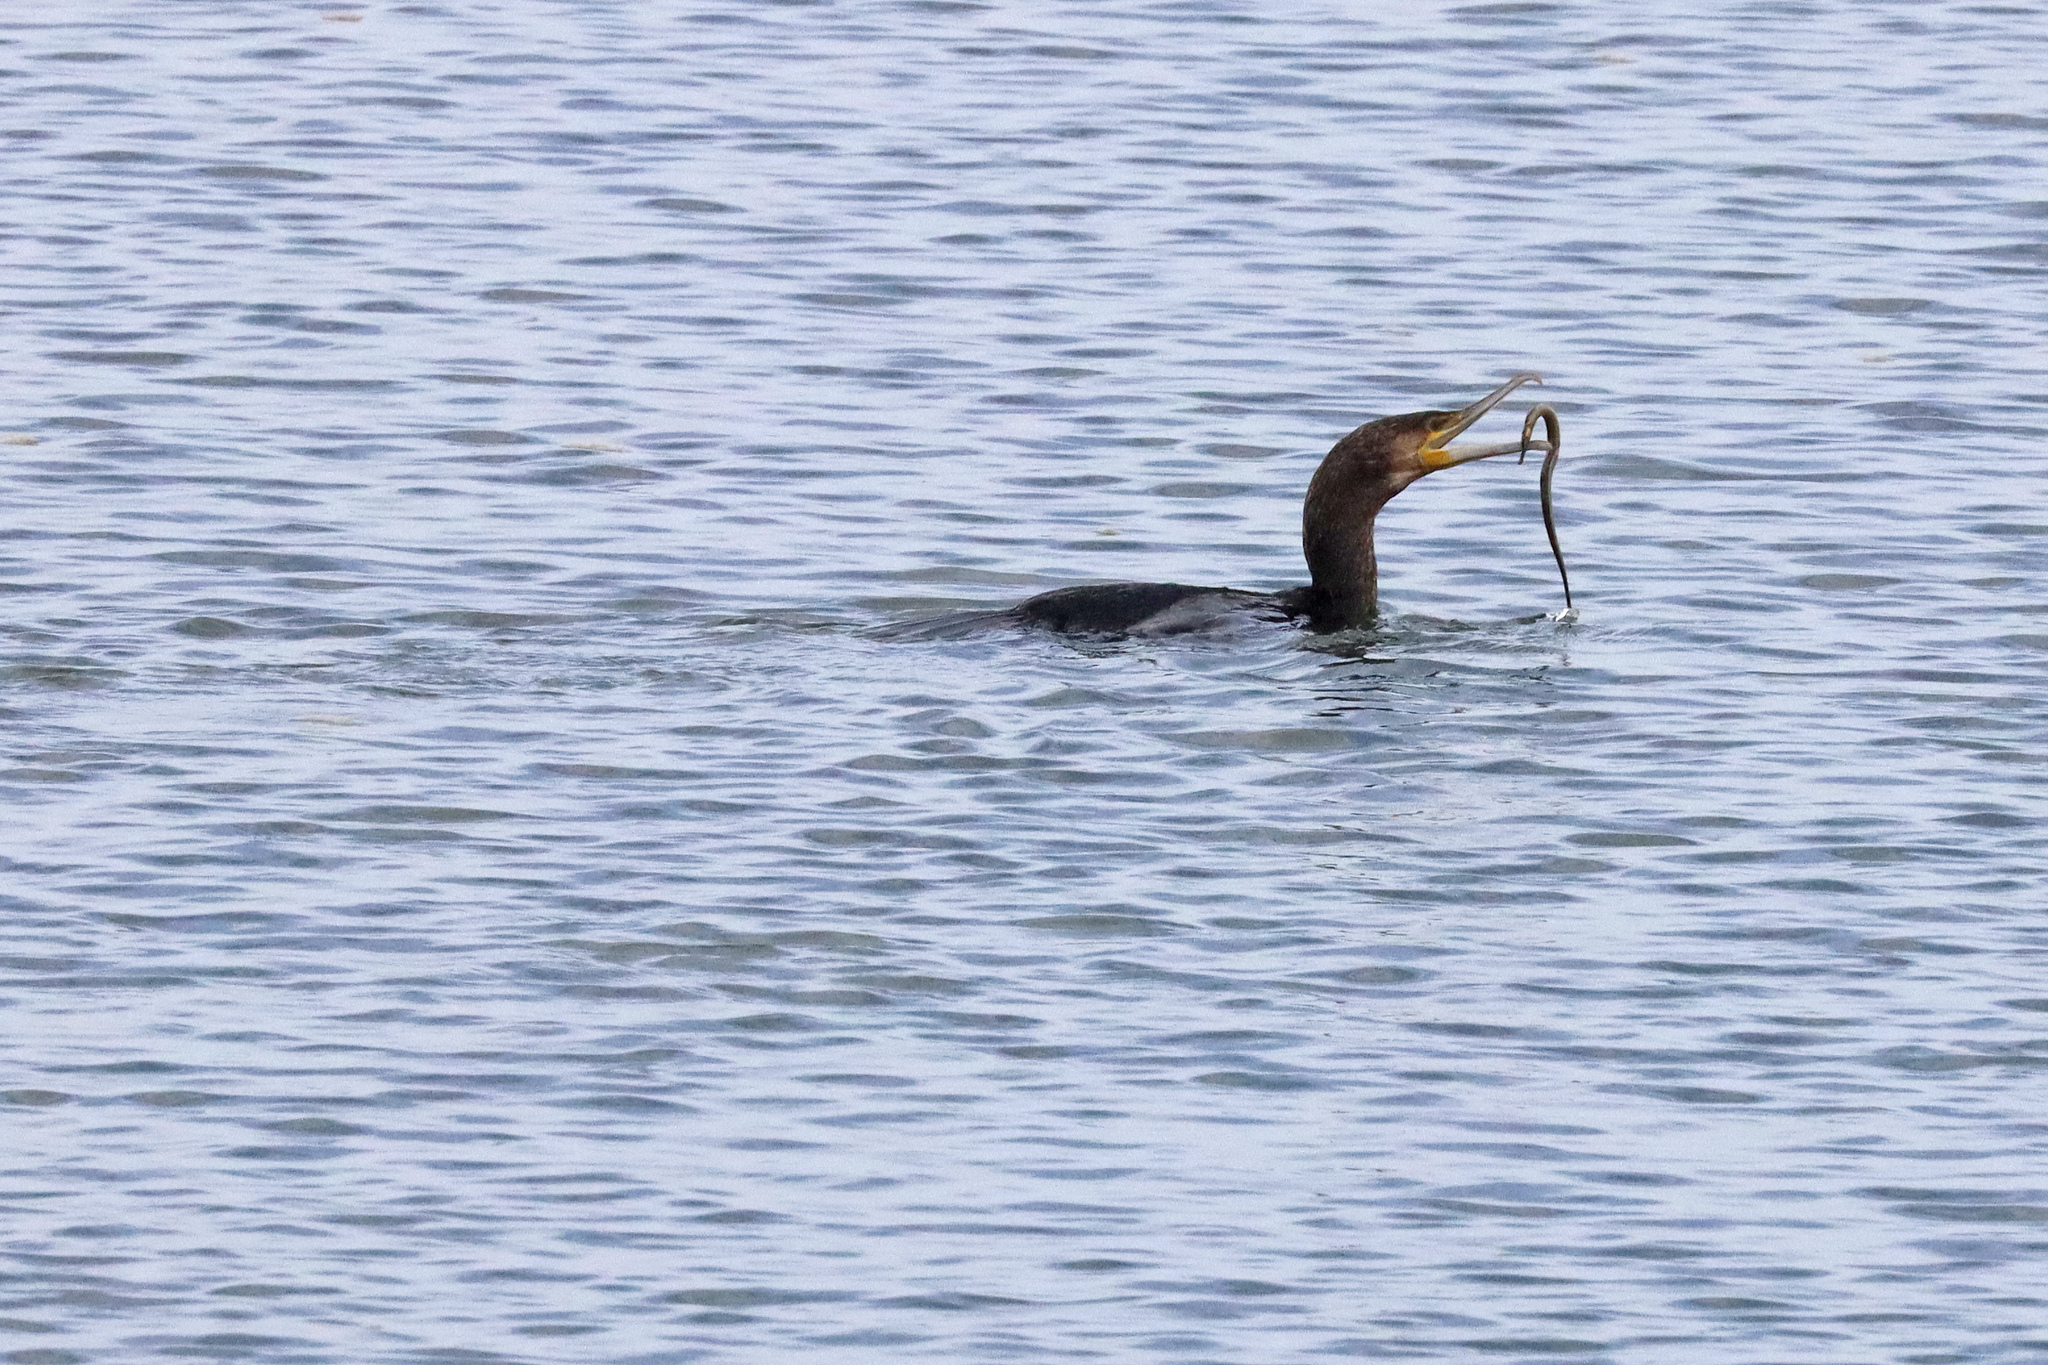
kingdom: Animalia
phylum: Chordata
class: Aves
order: Suliformes
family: Phalacrocoracidae
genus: Phalacrocorax
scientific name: Phalacrocorax carbo
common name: Great cormorant
